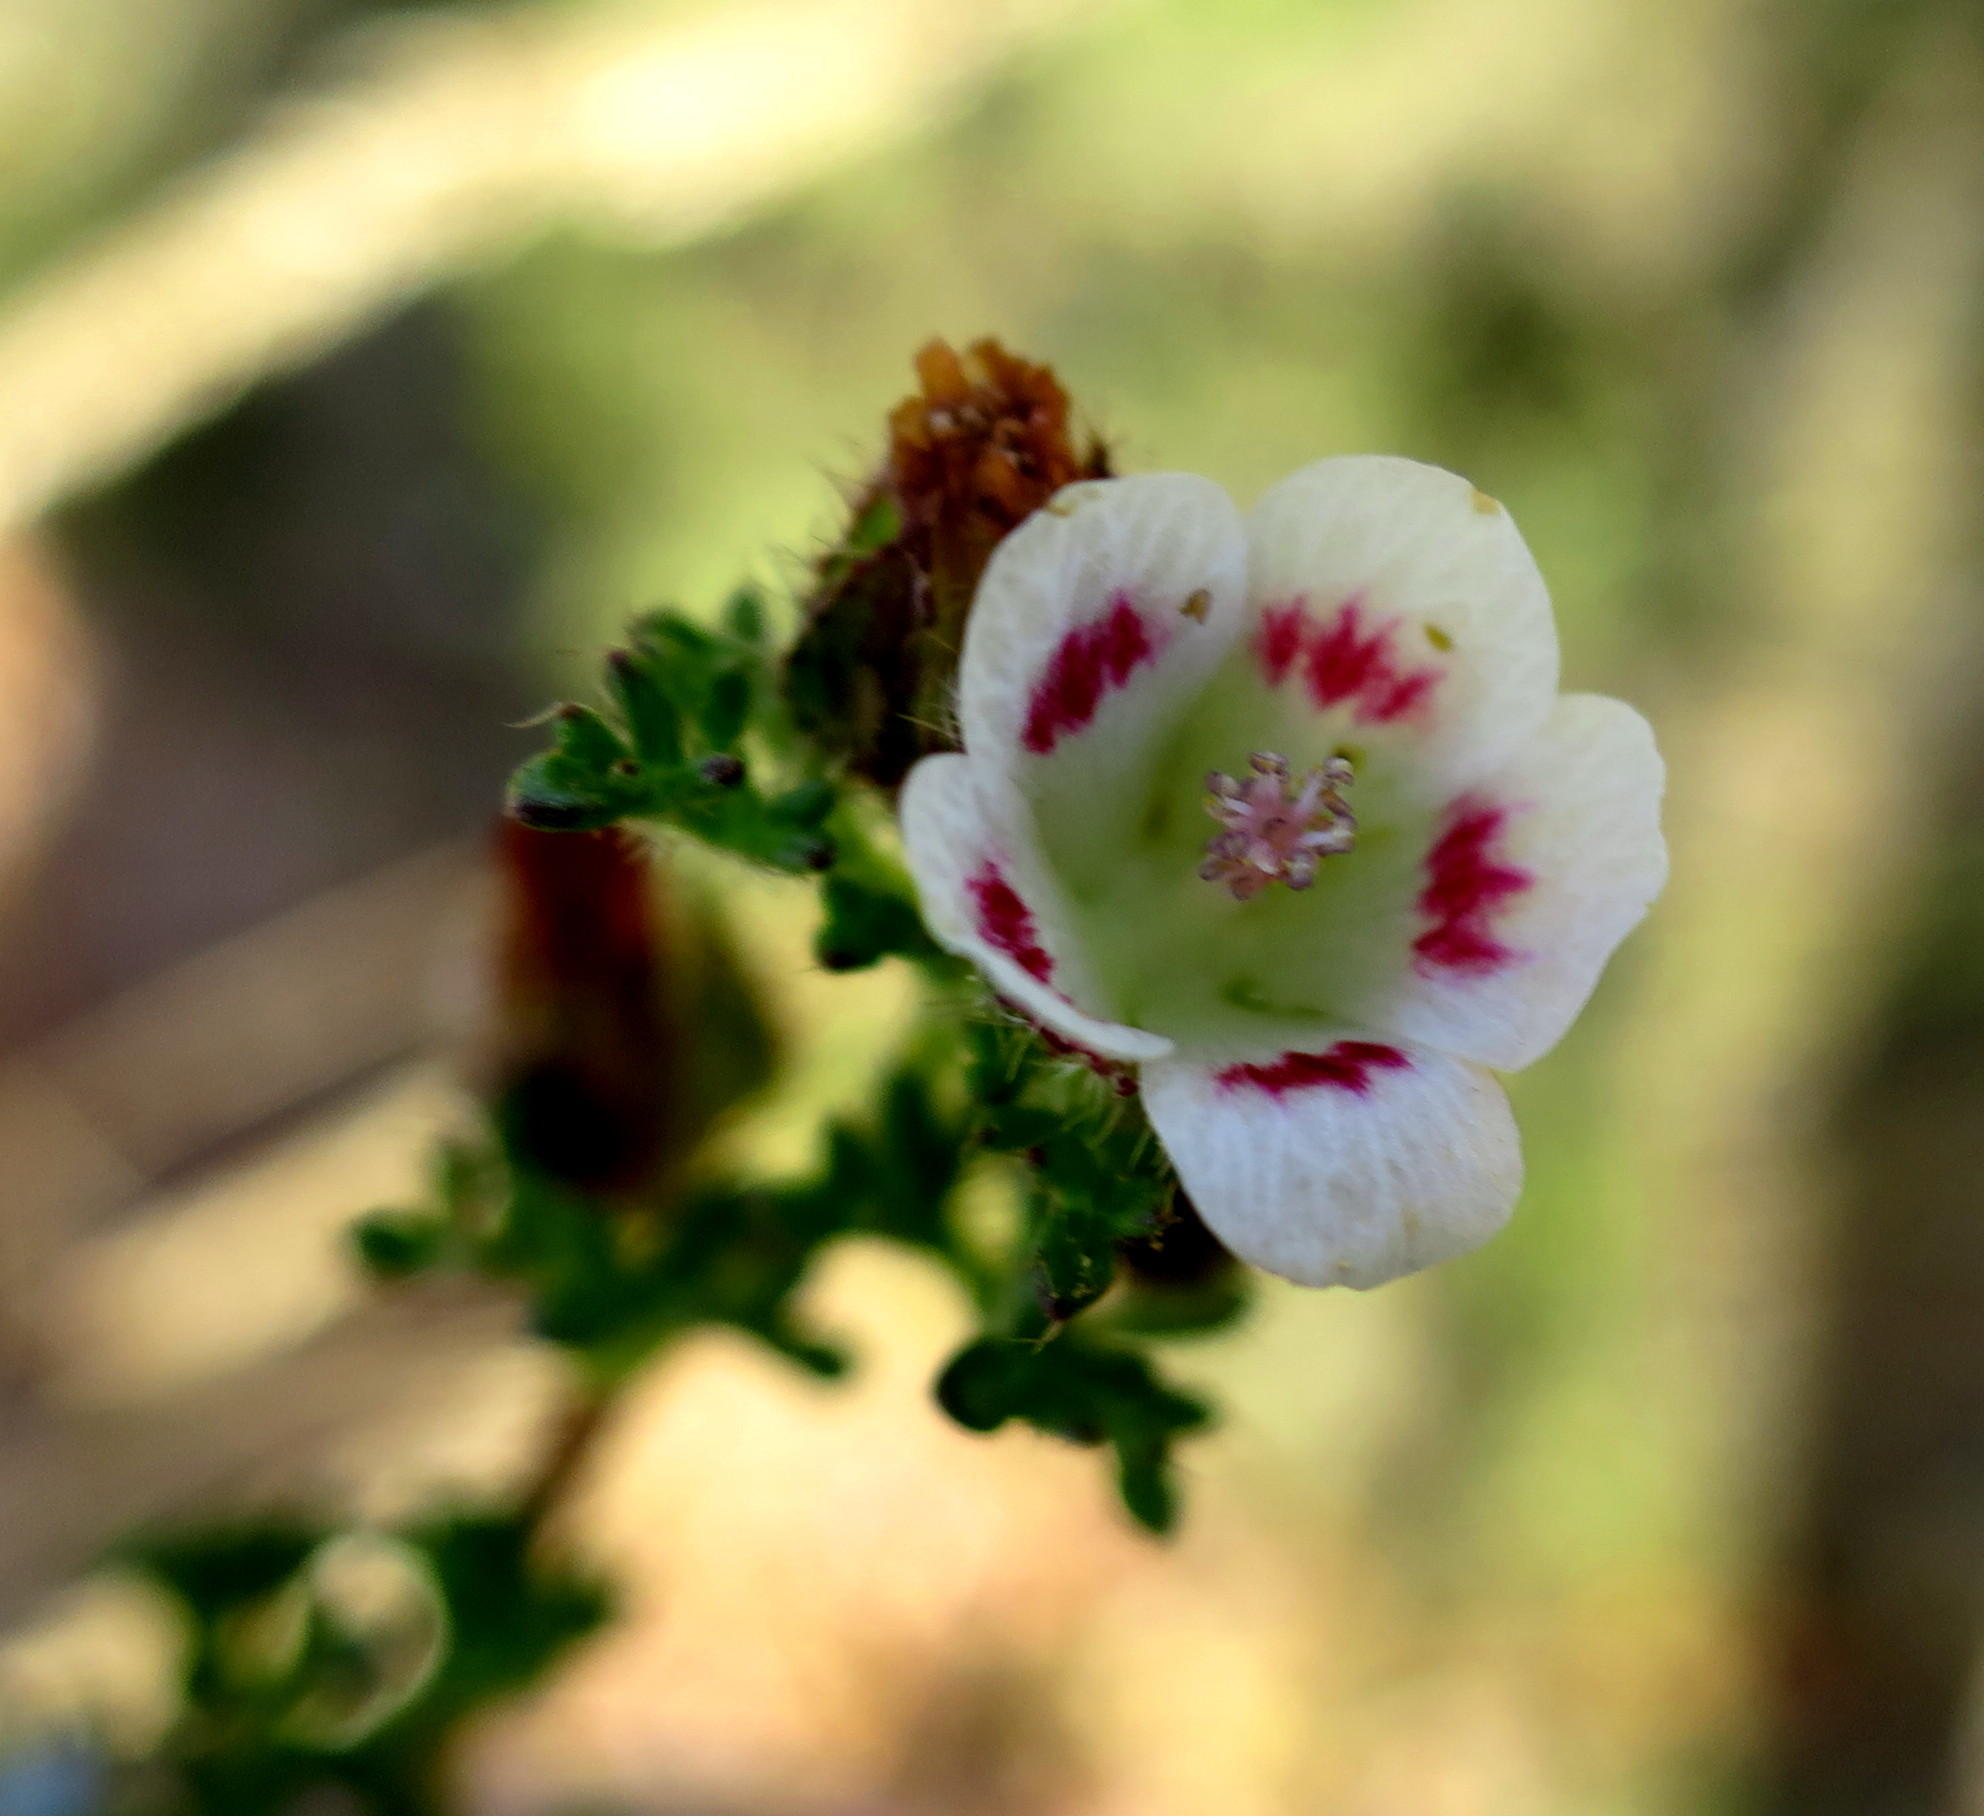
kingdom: Plantae
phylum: Tracheophyta
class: Magnoliopsida
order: Malvales
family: Malvaceae
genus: Anisodontea
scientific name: Anisodontea dissecta
